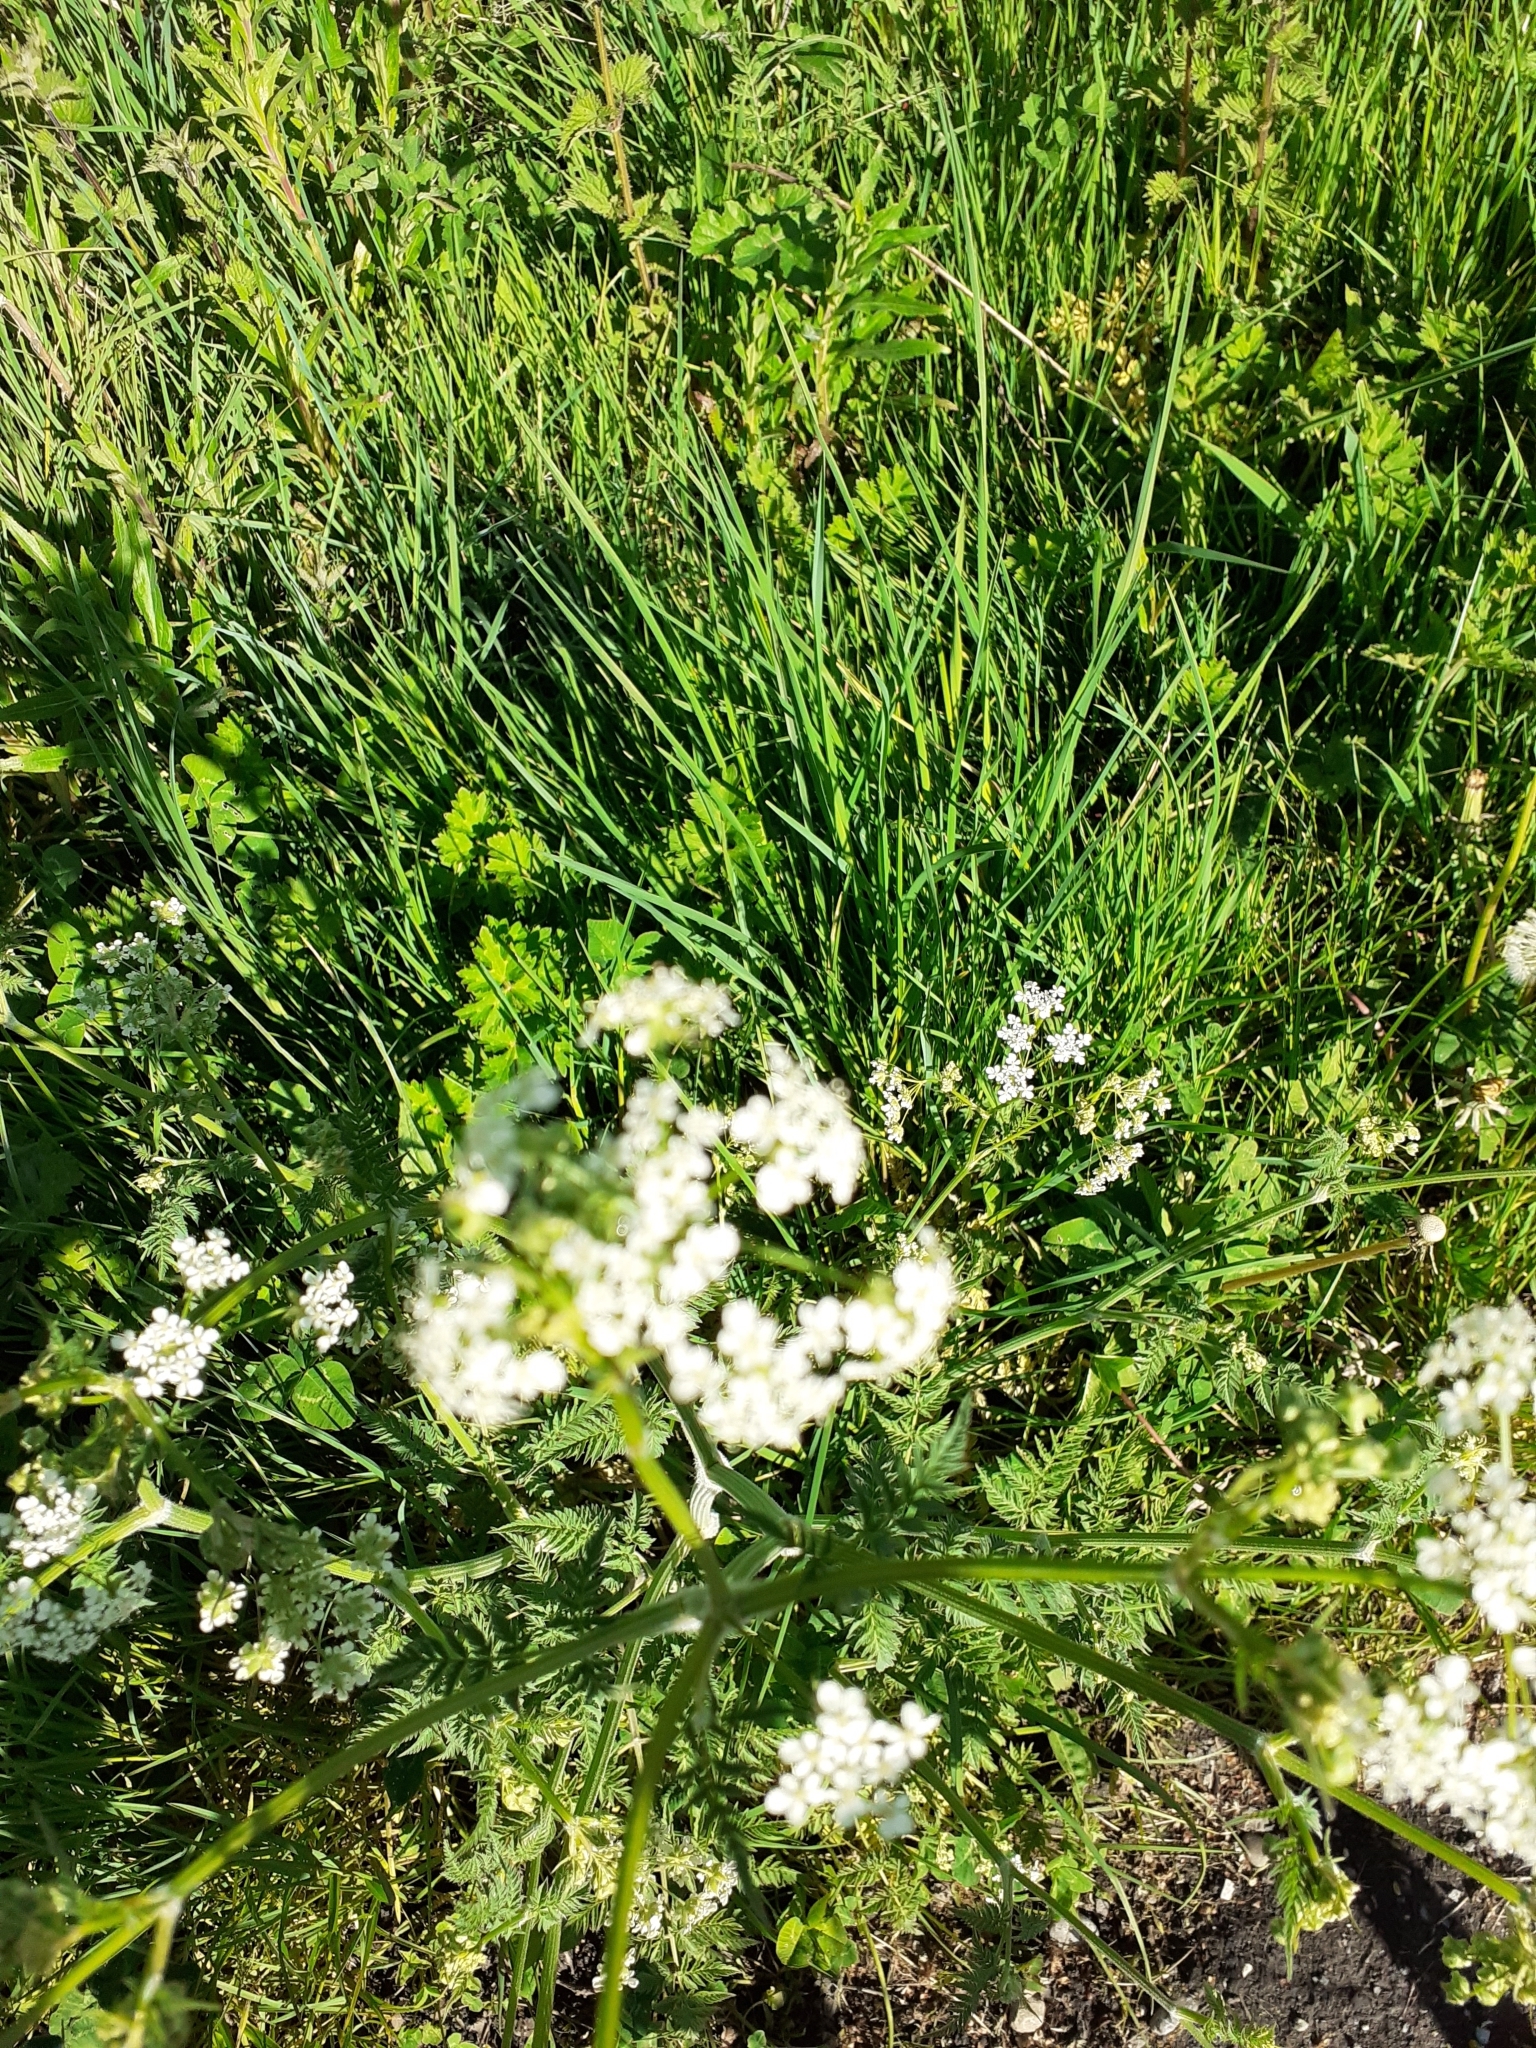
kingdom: Plantae
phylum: Tracheophyta
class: Magnoliopsida
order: Apiales
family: Apiaceae
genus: Anthriscus
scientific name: Anthriscus sylvestris
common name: Cow parsley
